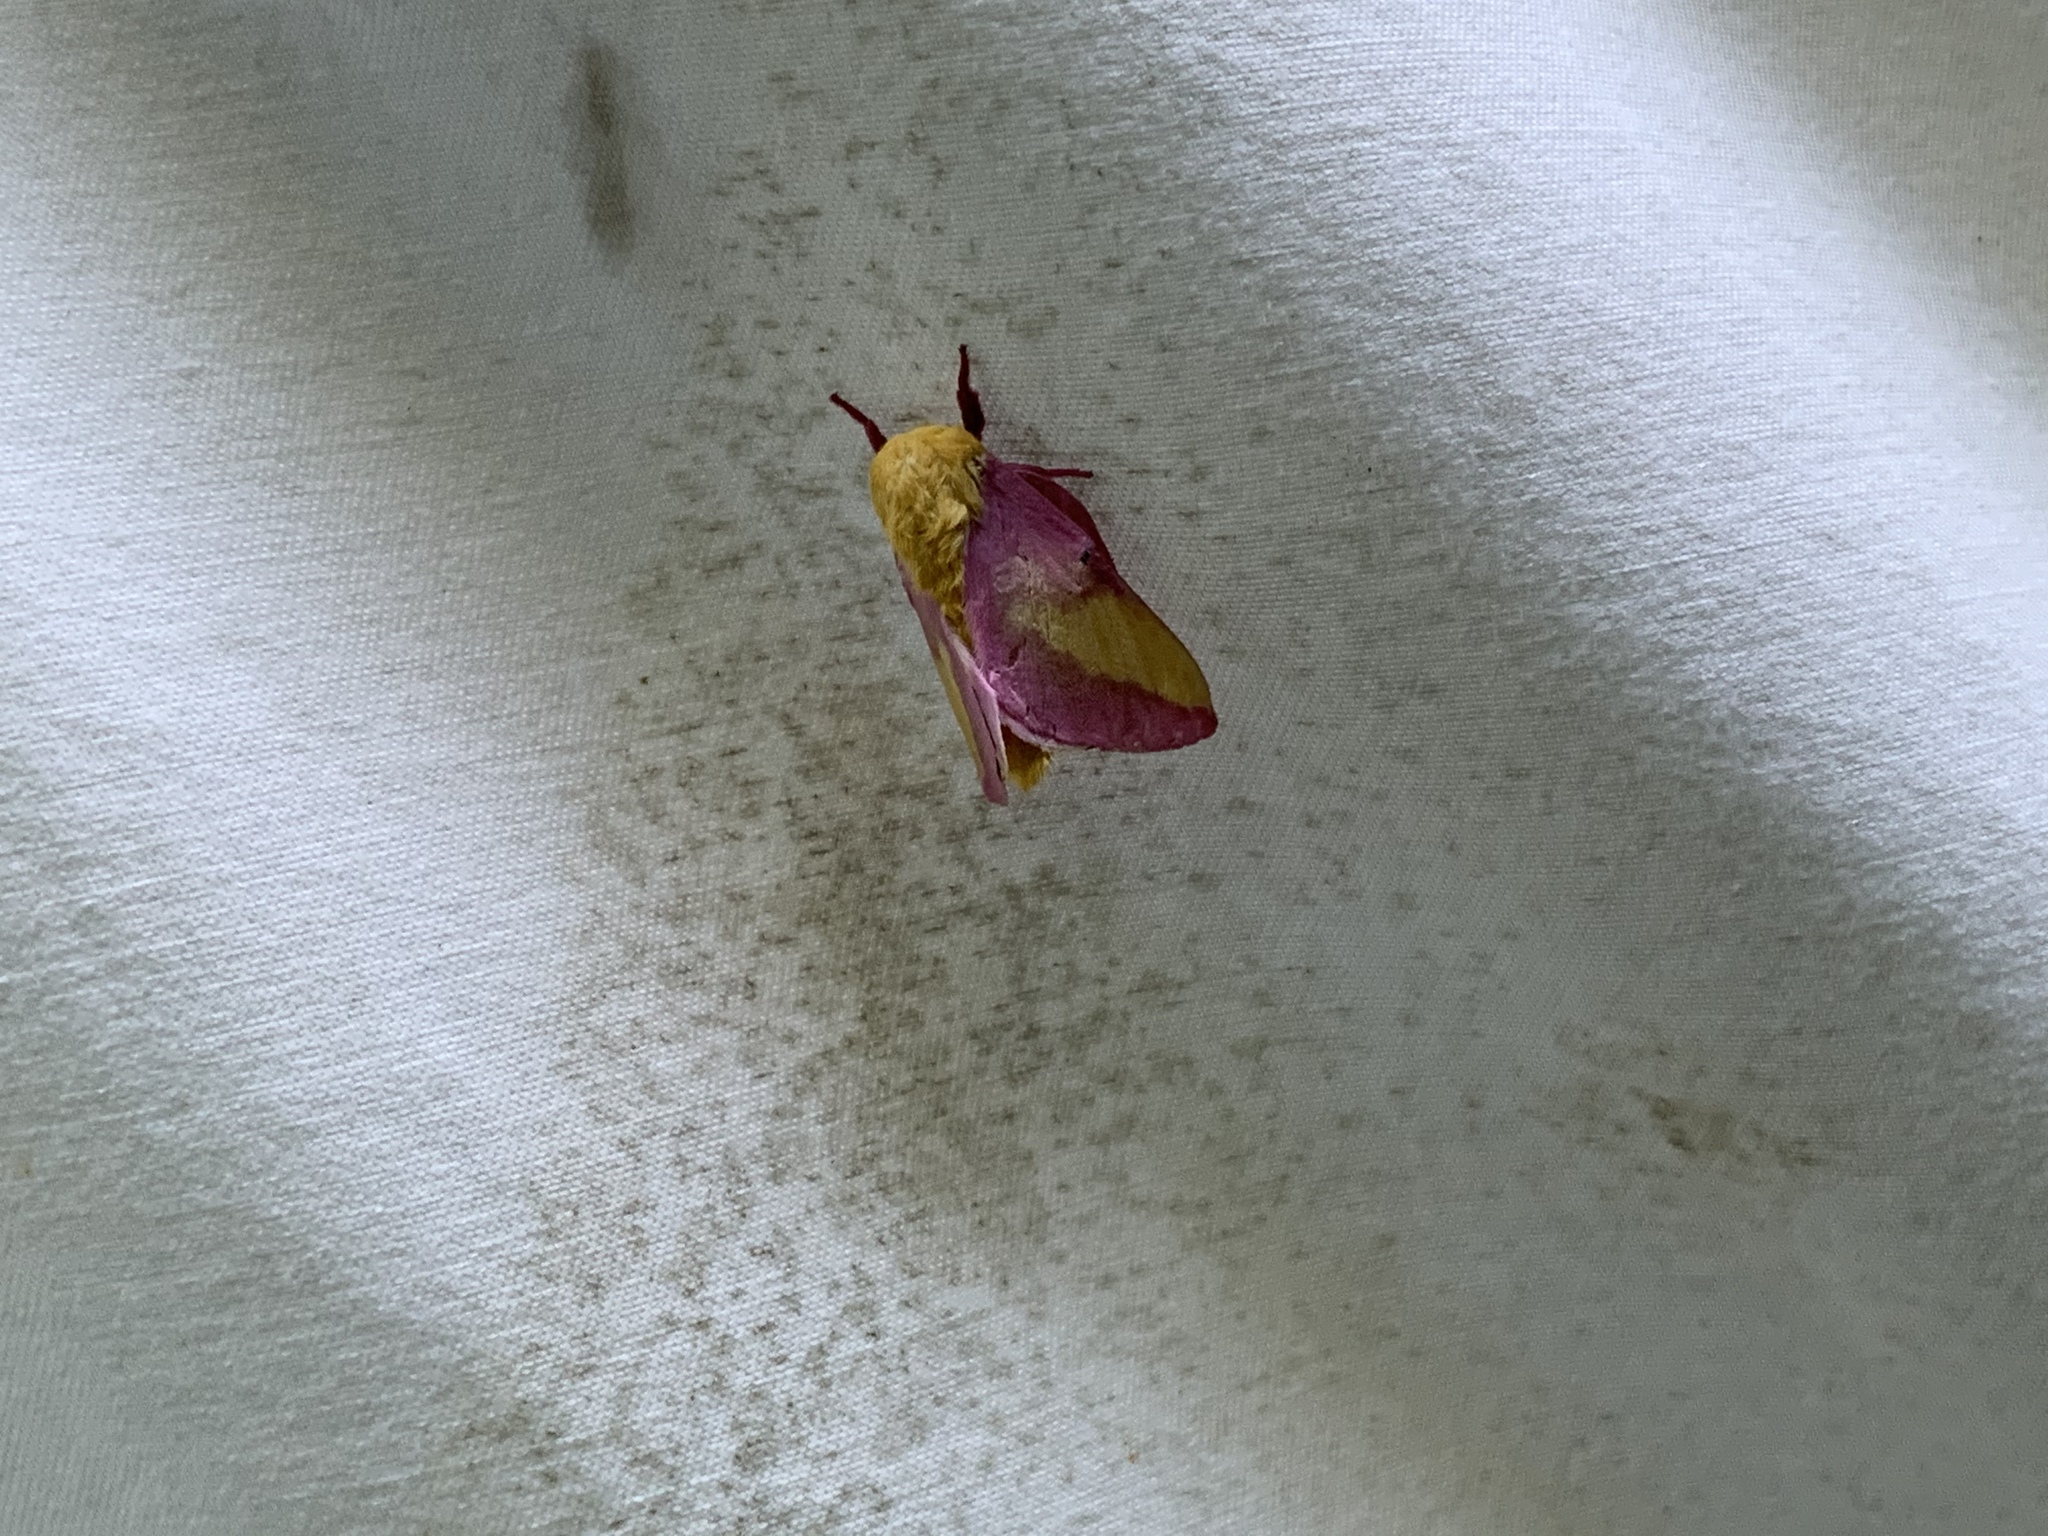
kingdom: Animalia
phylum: Arthropoda
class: Insecta
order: Lepidoptera
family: Saturniidae
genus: Dryocampa
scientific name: Dryocampa rubicunda
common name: Rosy maple moth
